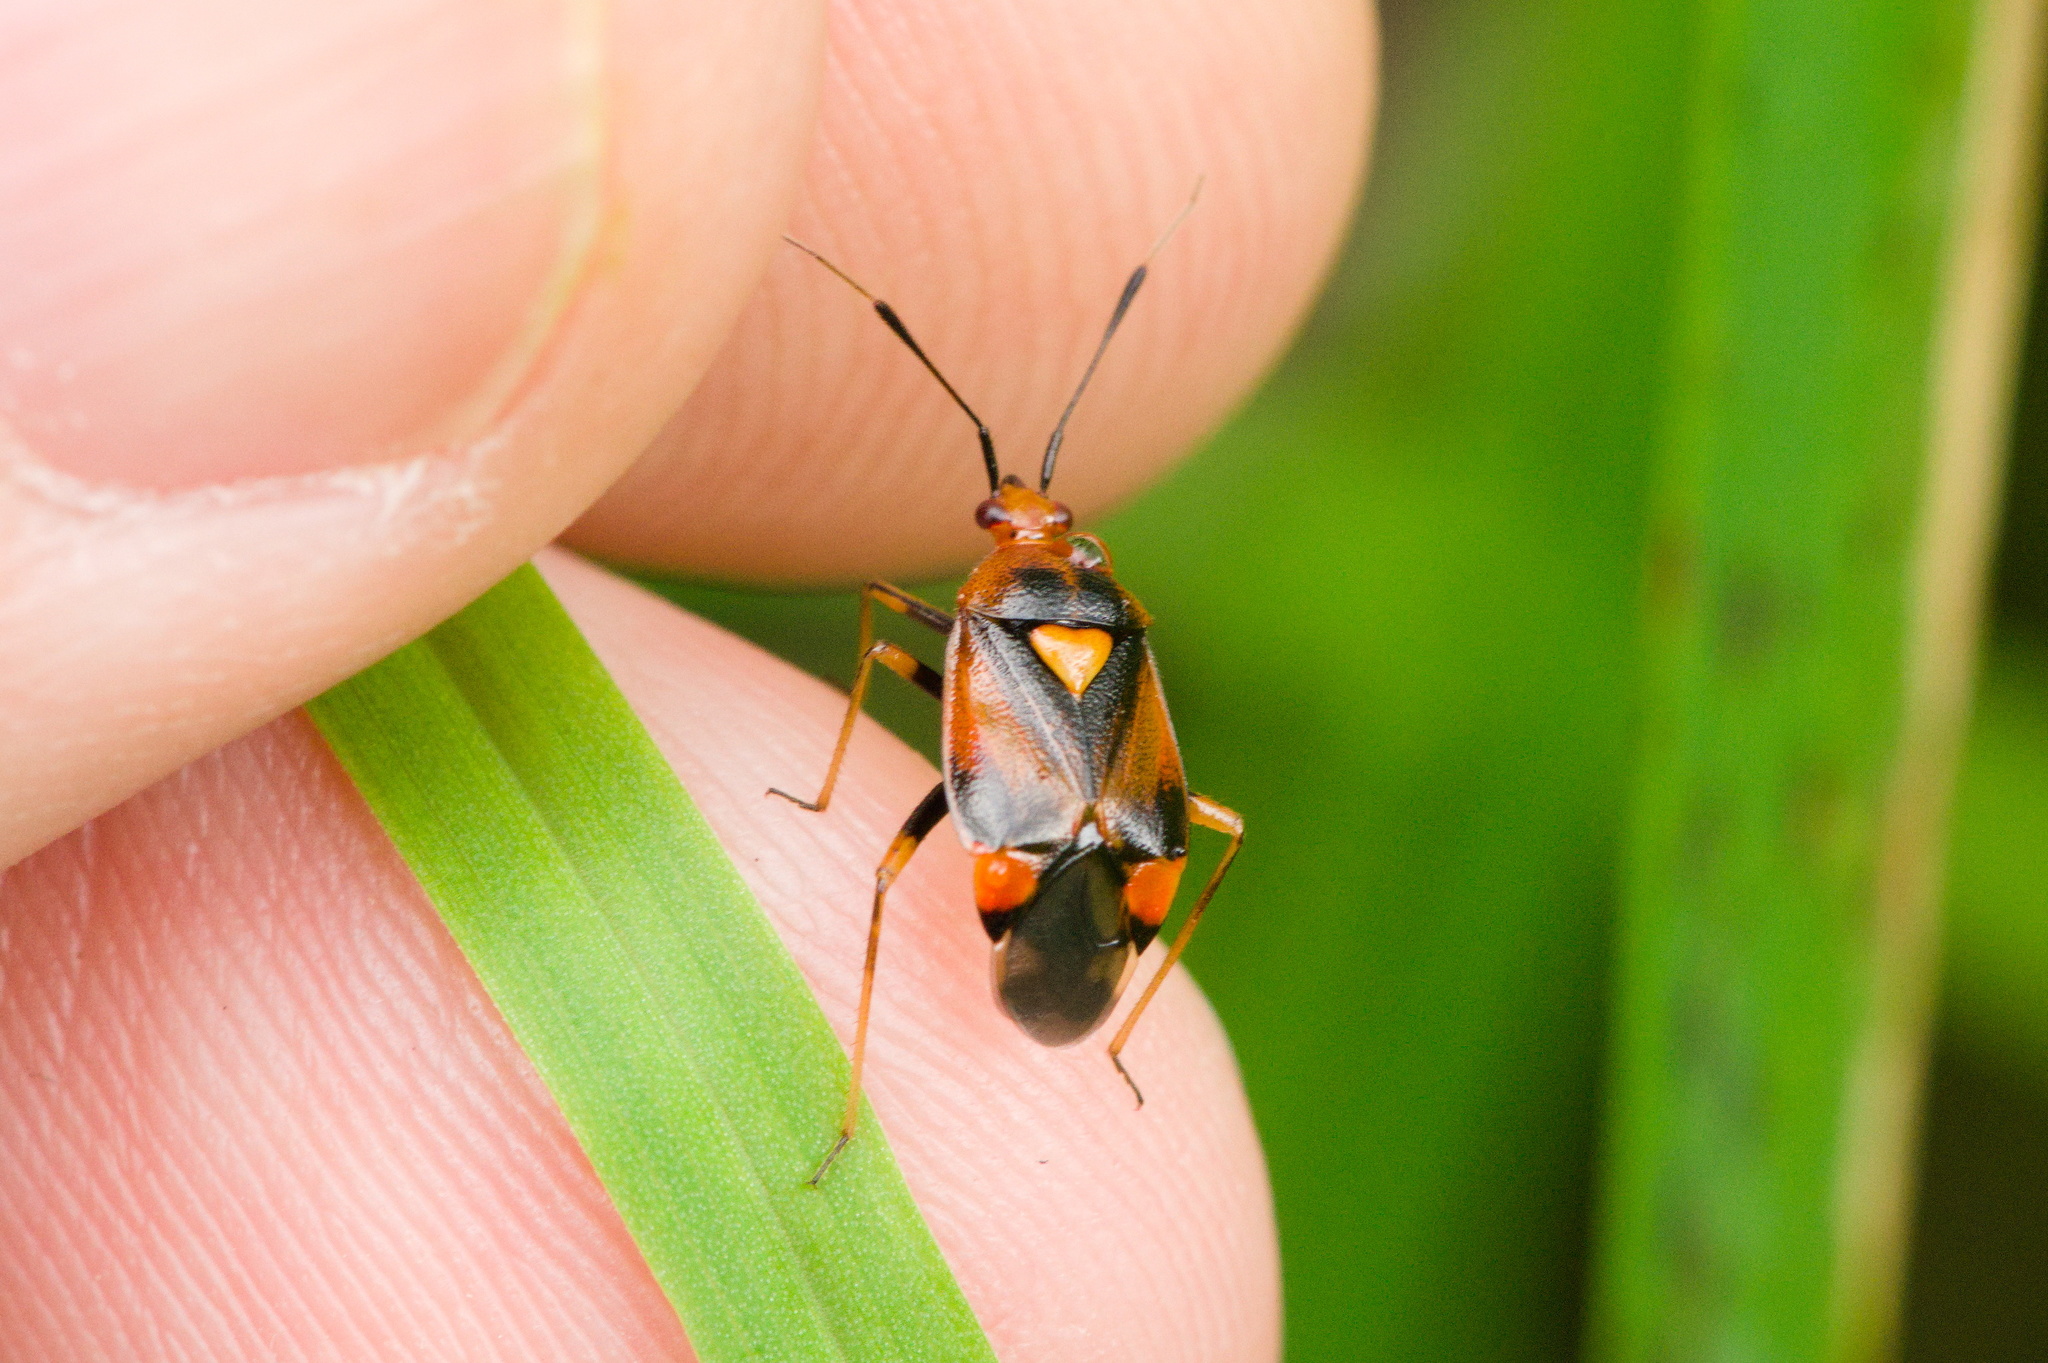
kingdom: Animalia
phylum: Arthropoda
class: Insecta
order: Hemiptera
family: Miridae
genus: Deraeocoris
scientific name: Deraeocoris ruber
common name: Plant bug
